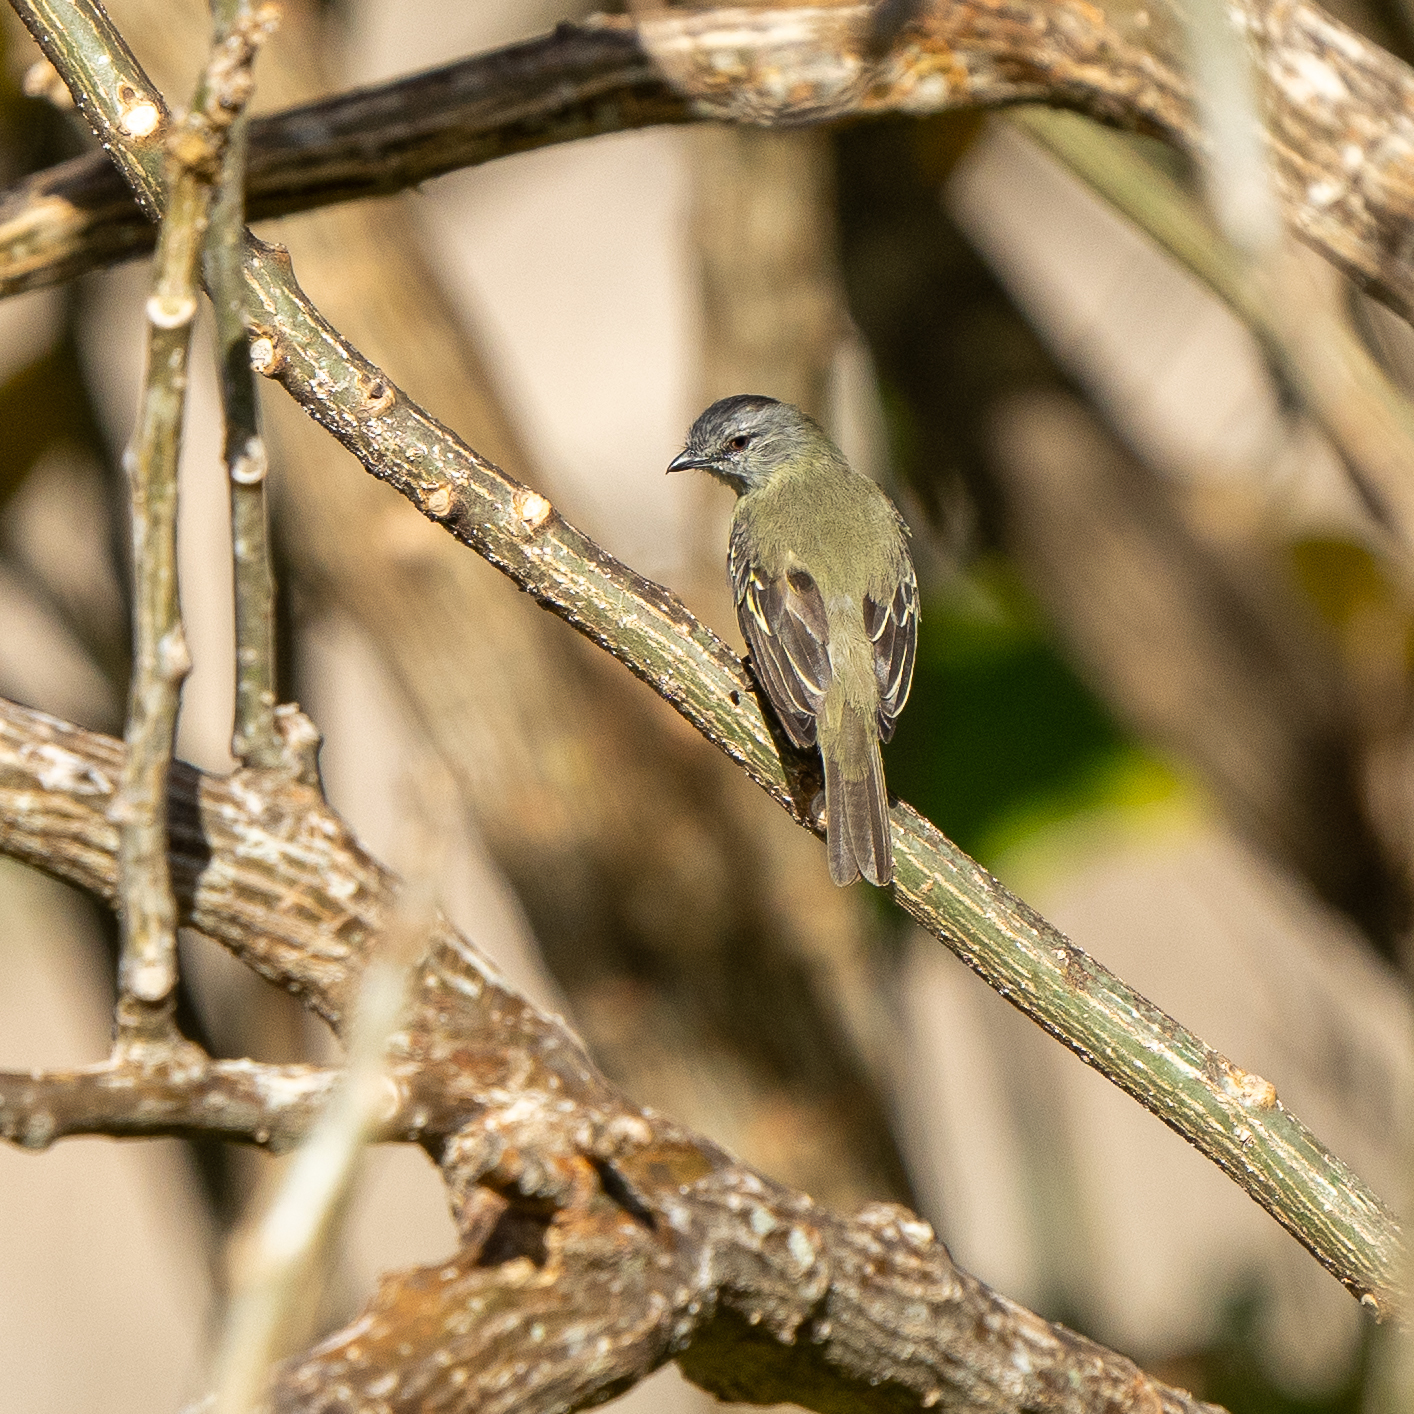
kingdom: Animalia
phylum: Chordata
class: Aves
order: Passeriformes
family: Tyrannidae
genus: Tyrannulus
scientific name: Tyrannulus elatus
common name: Yellow-crowned tyrannulet
